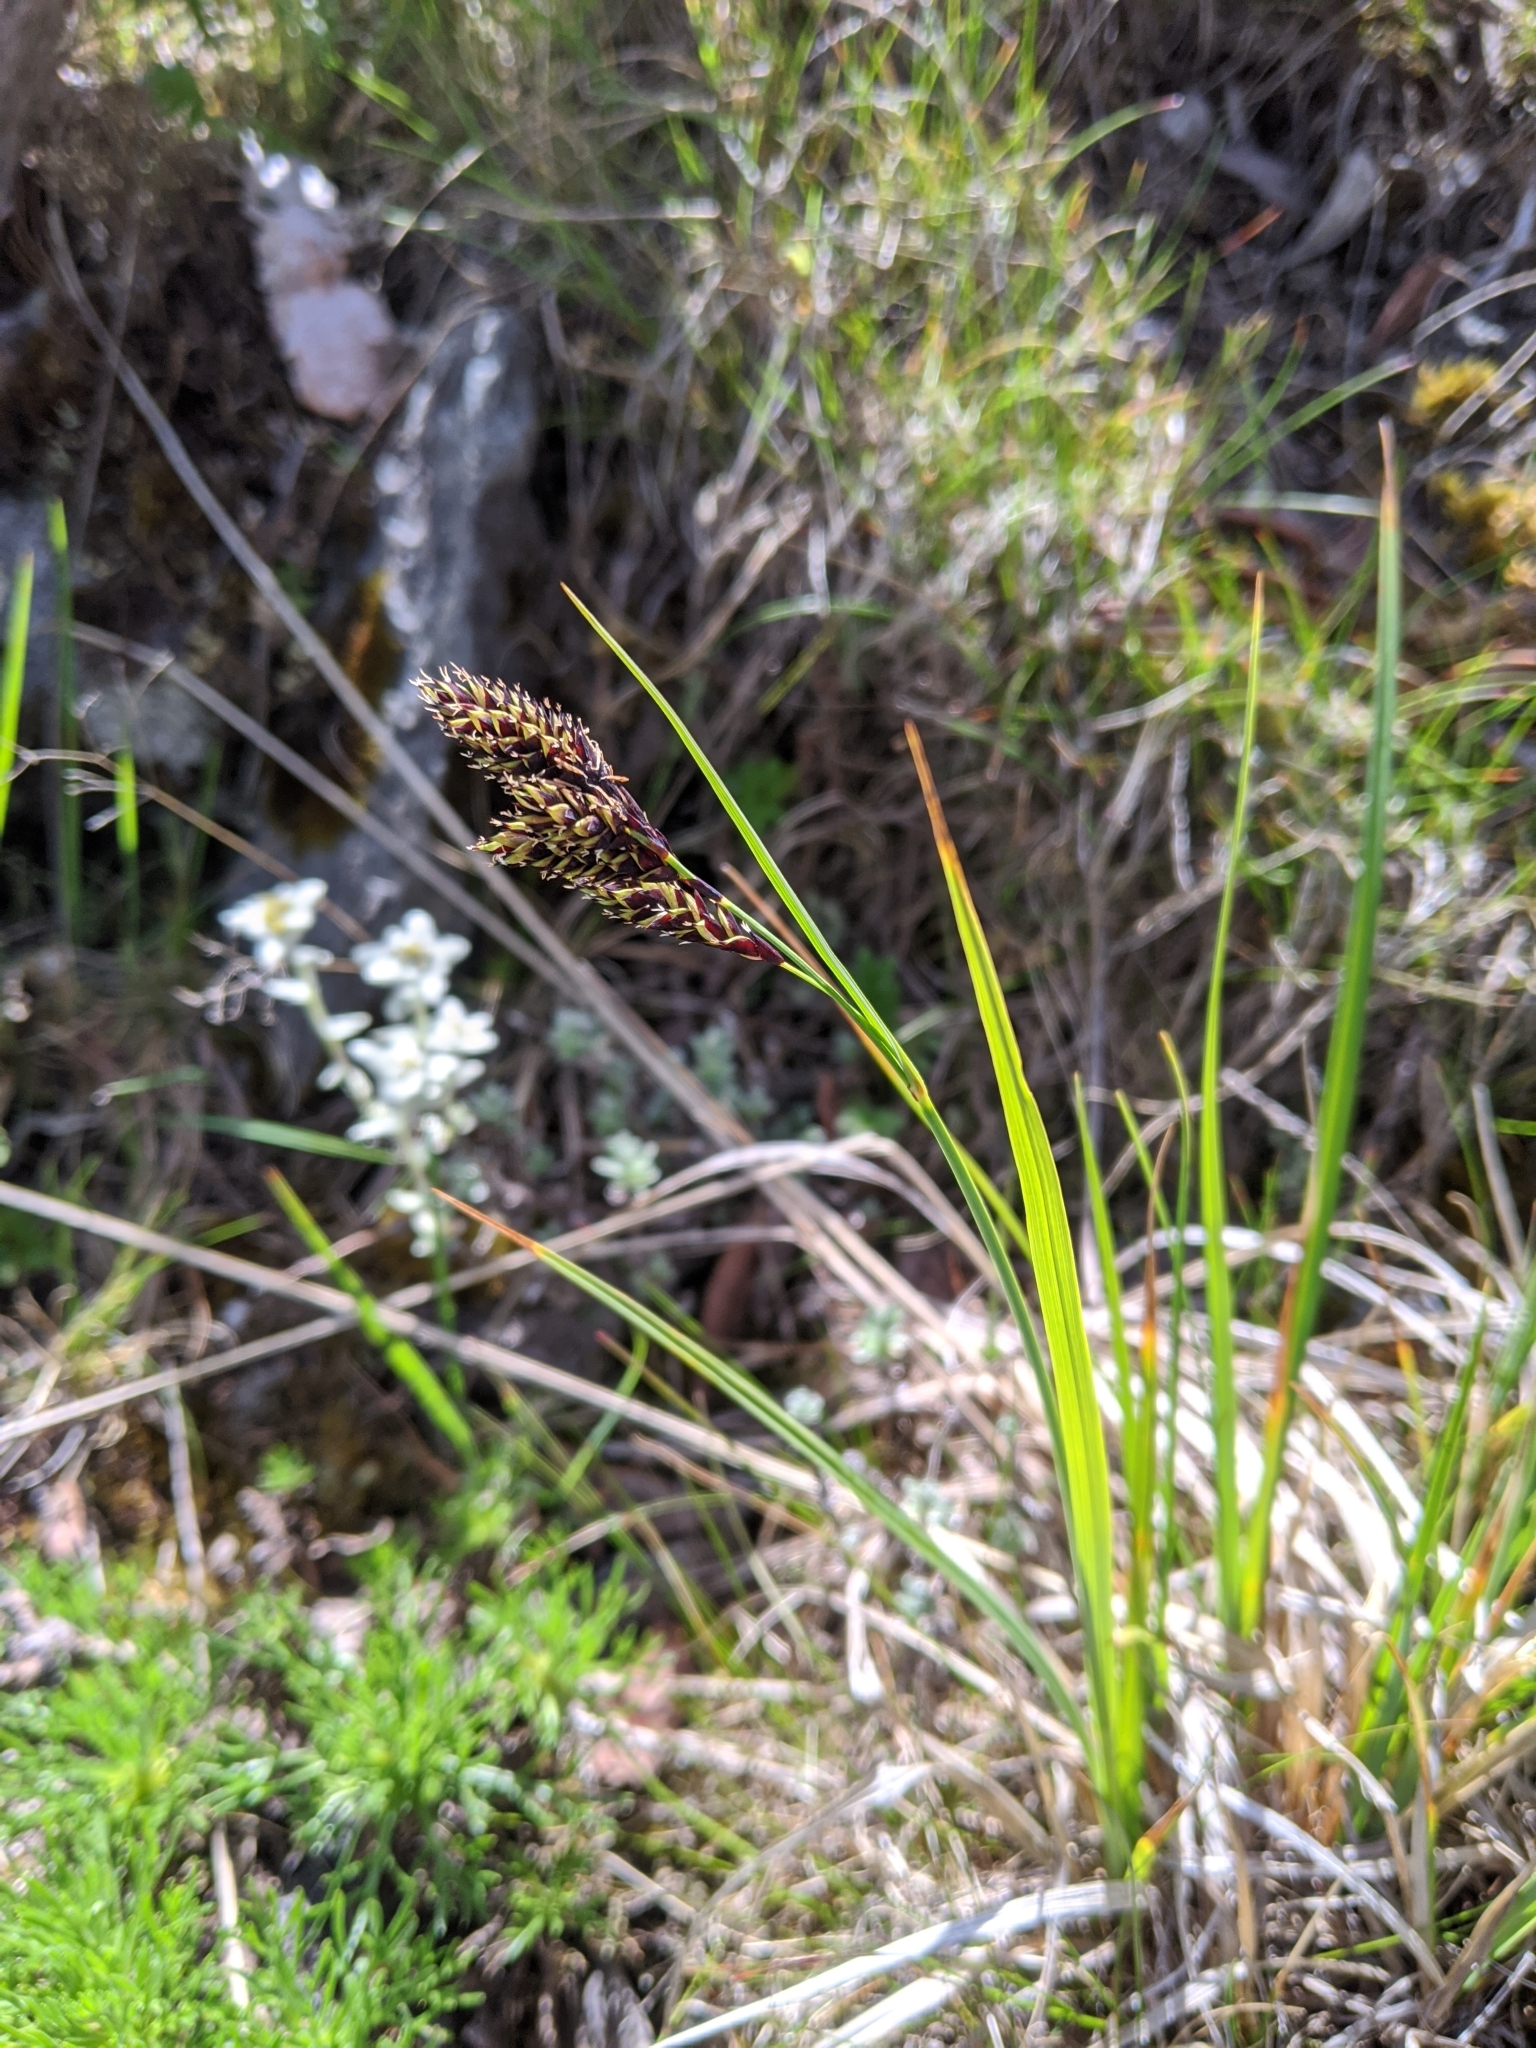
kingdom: Plantae
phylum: Tracheophyta
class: Liliopsida
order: Poales
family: Cyperaceae
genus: Carex
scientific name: Carex atrata
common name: Black alpine sedge
